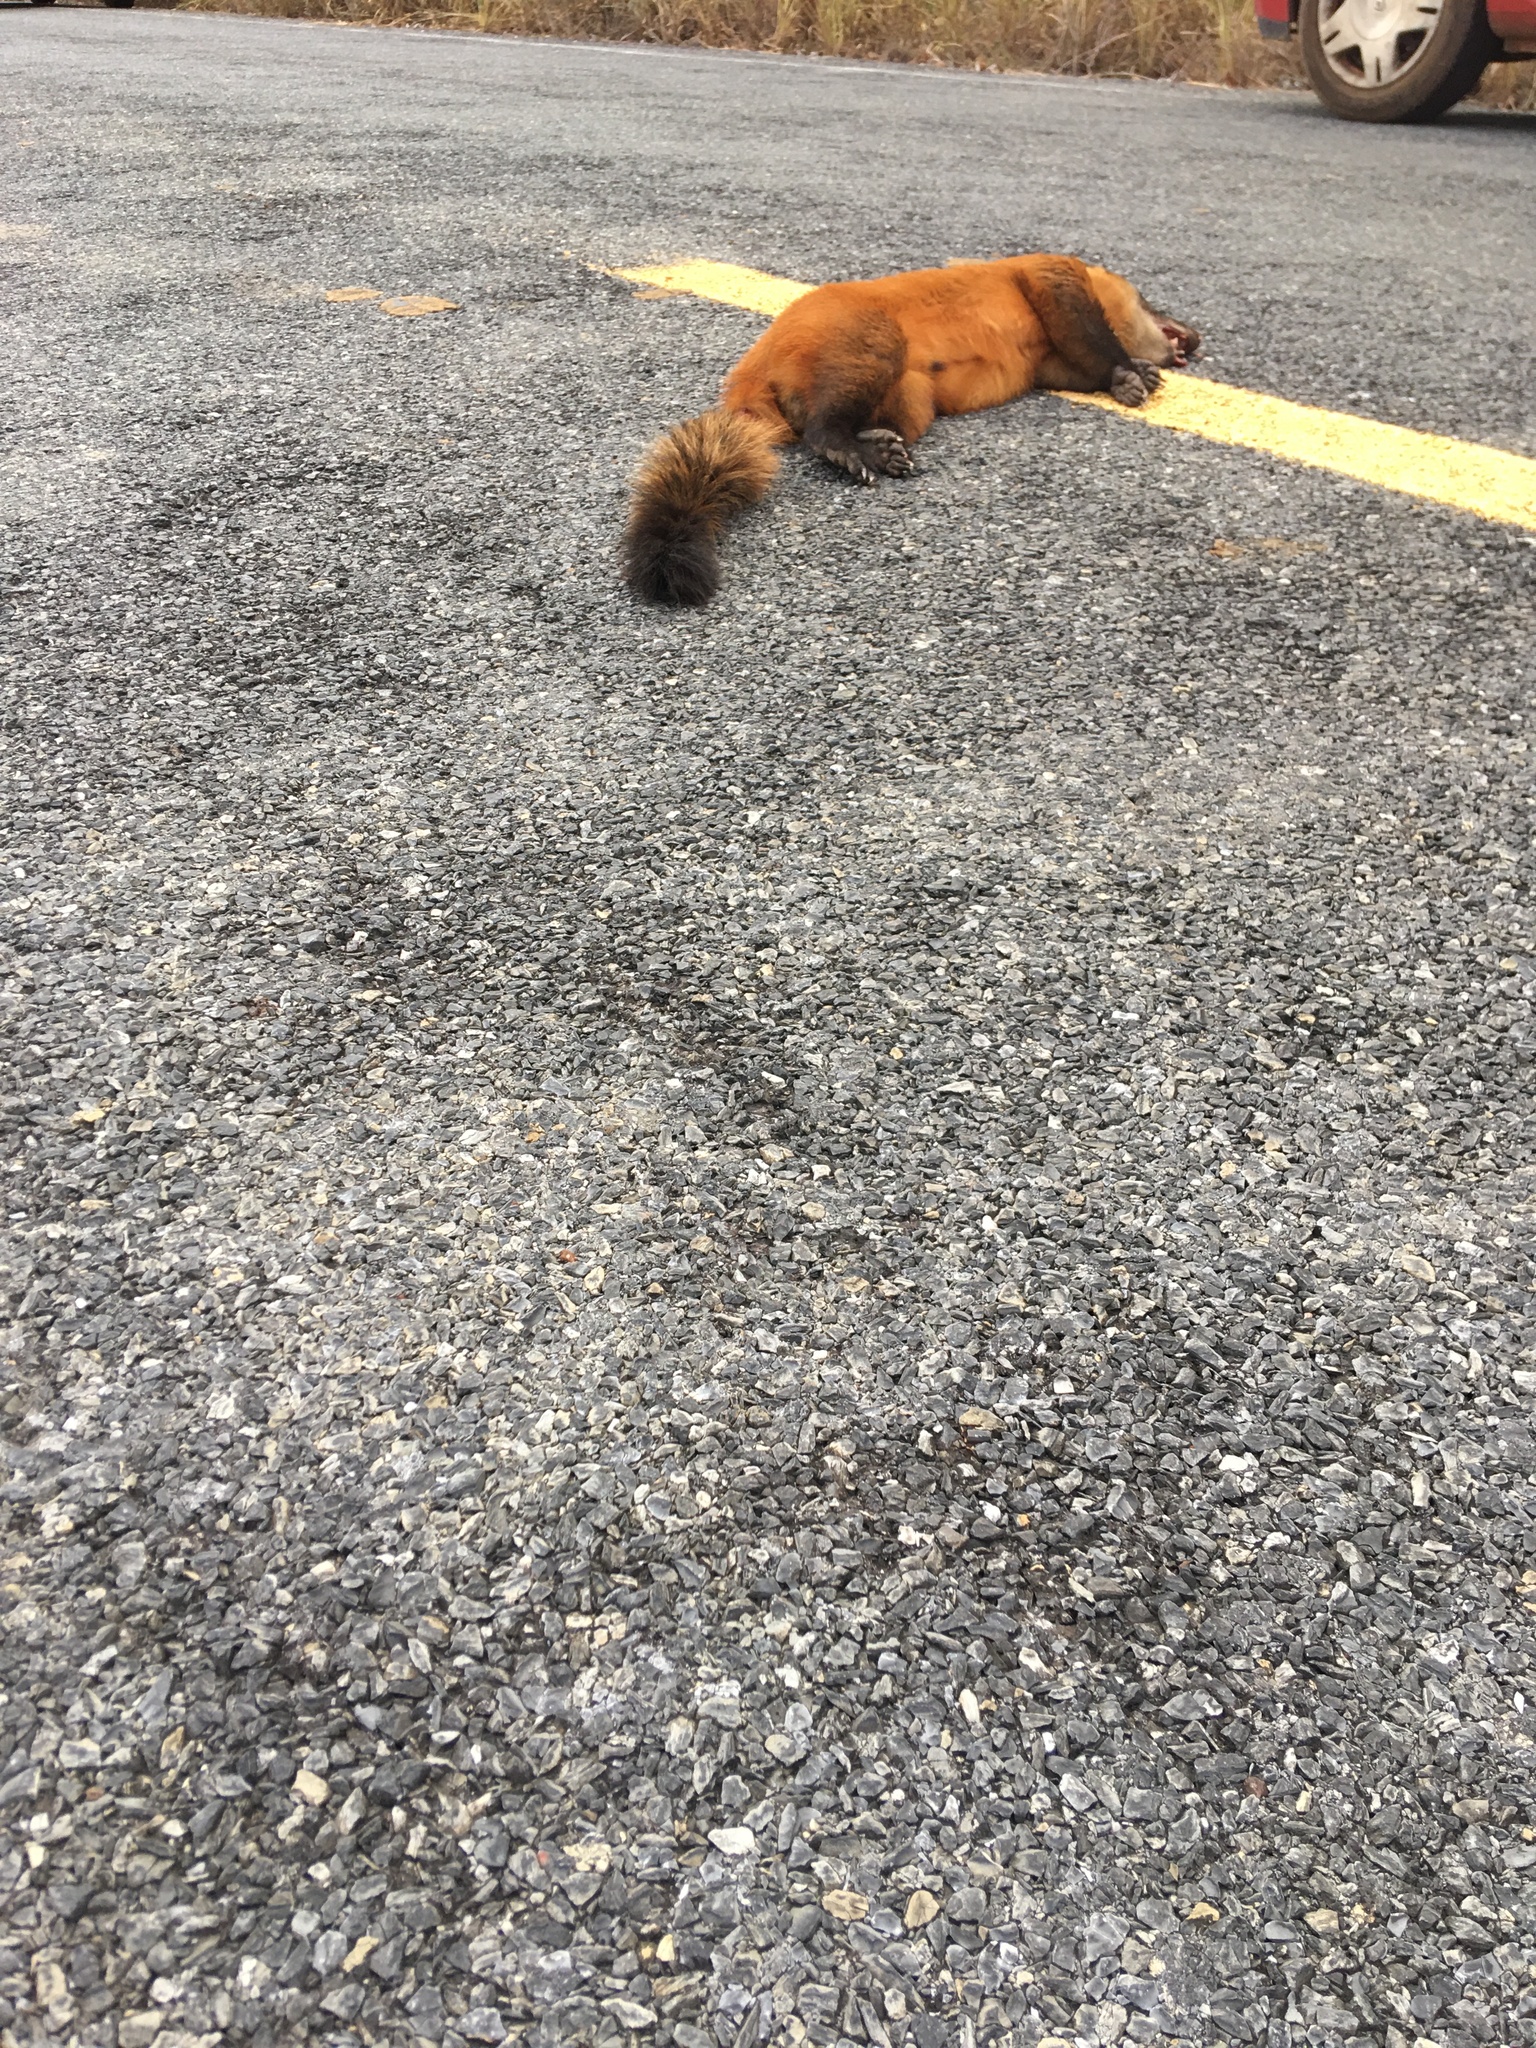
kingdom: Animalia
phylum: Chordata
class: Mammalia
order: Carnivora
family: Procyonidae
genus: Nasua
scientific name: Nasua nasua
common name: South american coati
